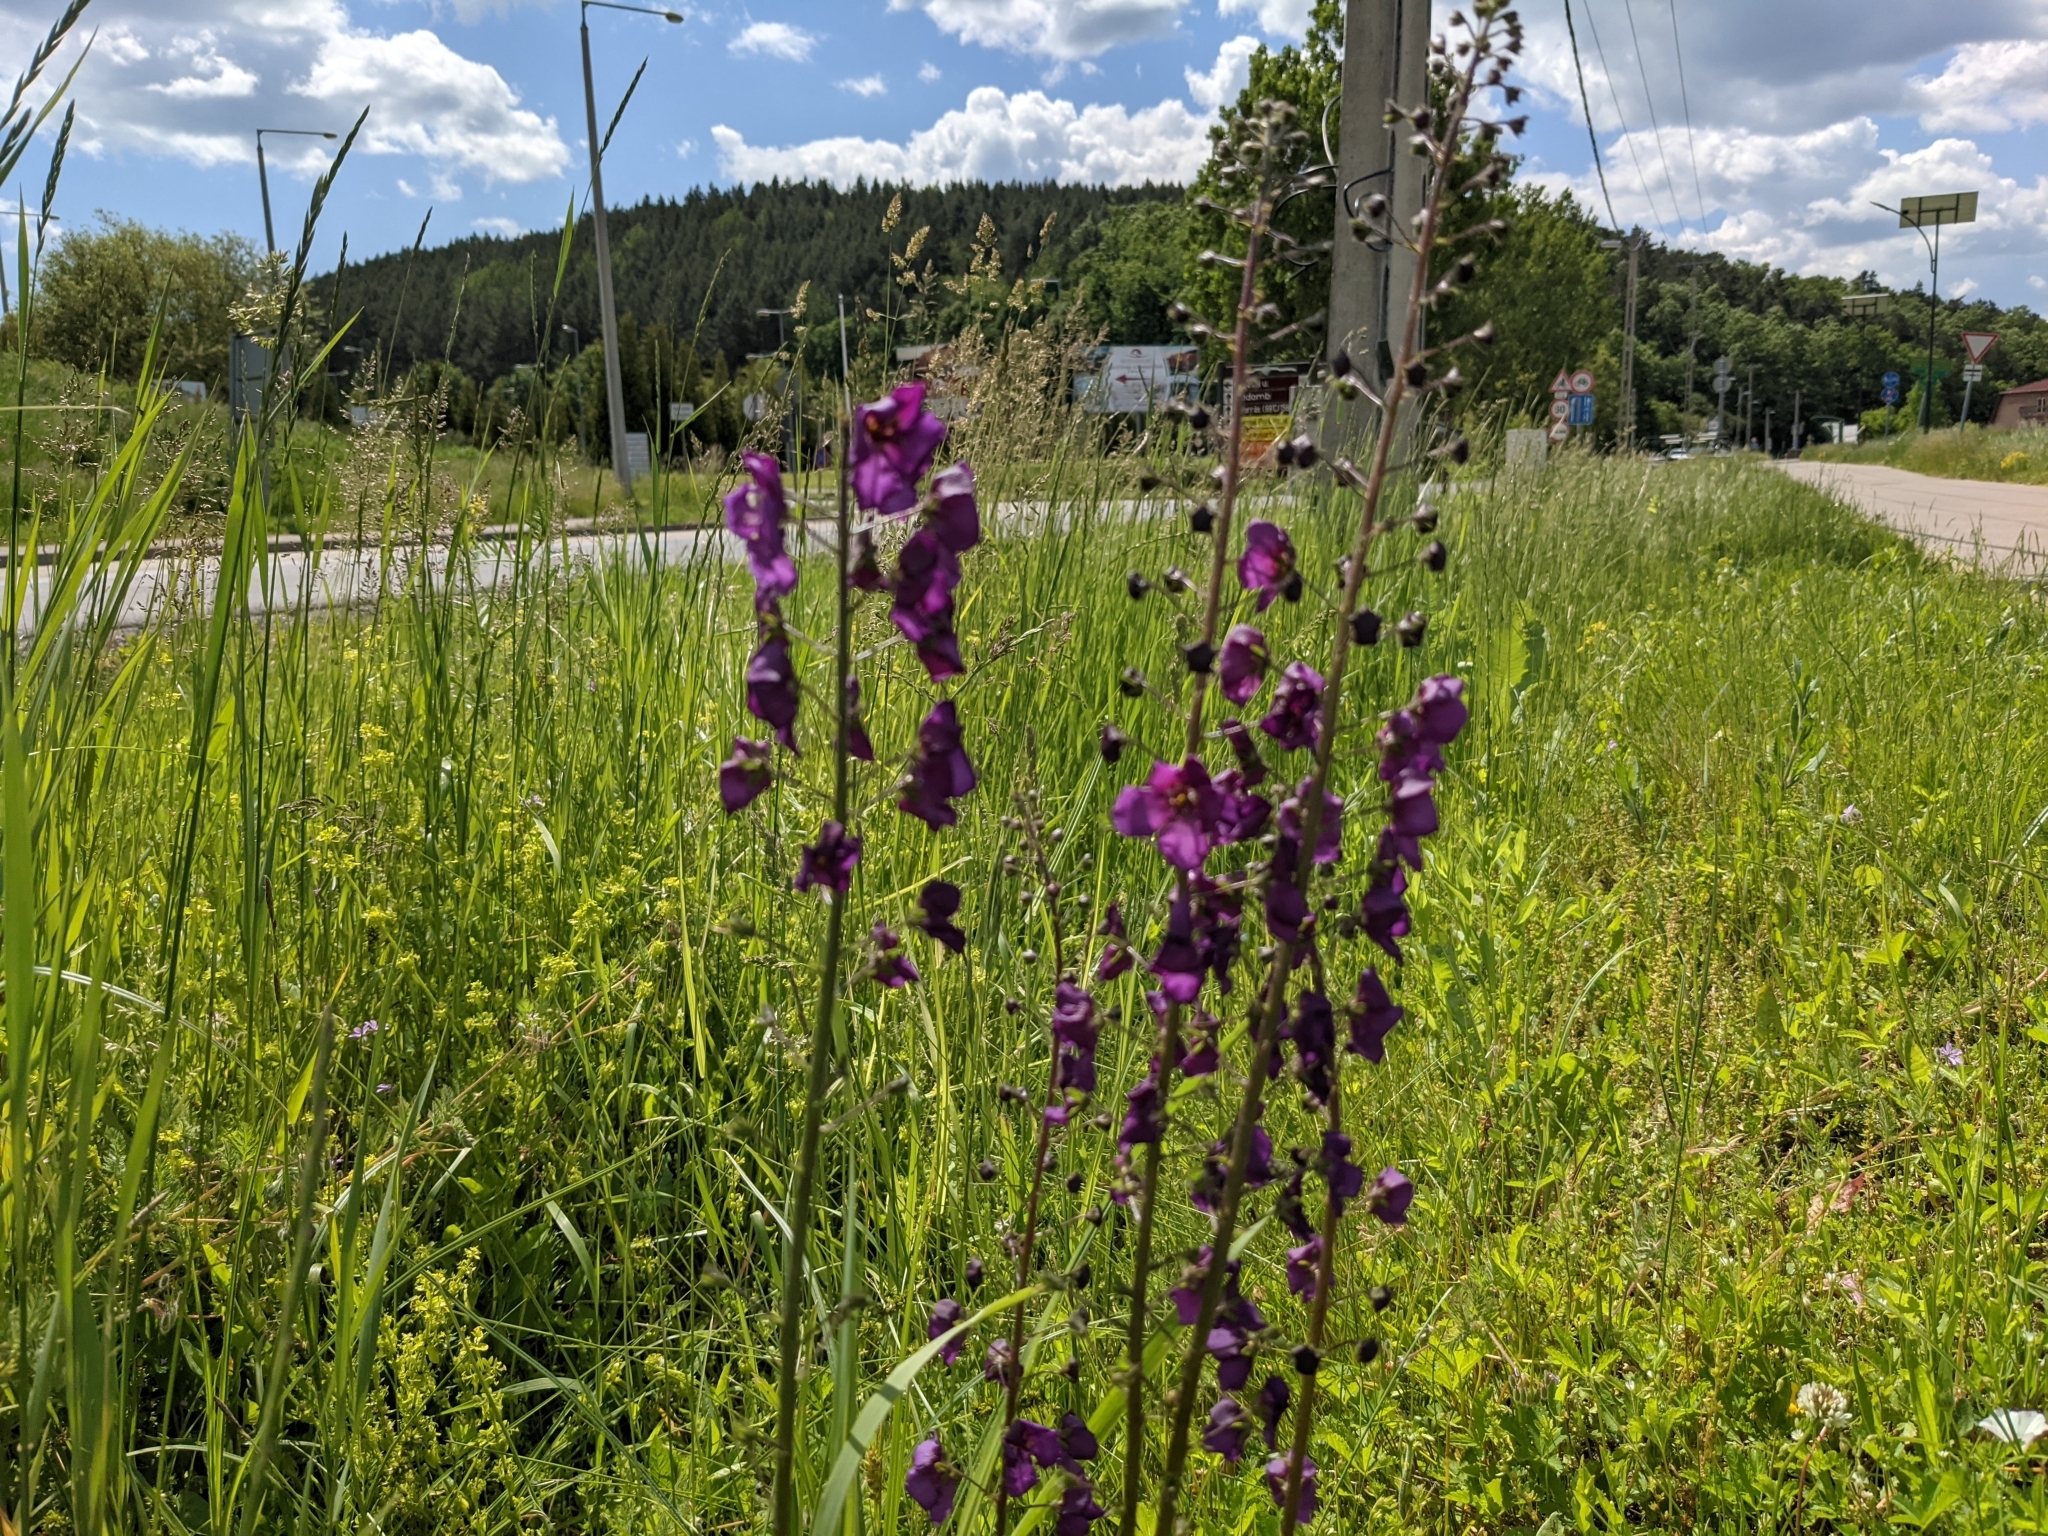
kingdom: Plantae
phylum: Tracheophyta
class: Magnoliopsida
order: Lamiales
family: Scrophulariaceae
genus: Verbascum
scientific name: Verbascum phoeniceum
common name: Purple mullein
